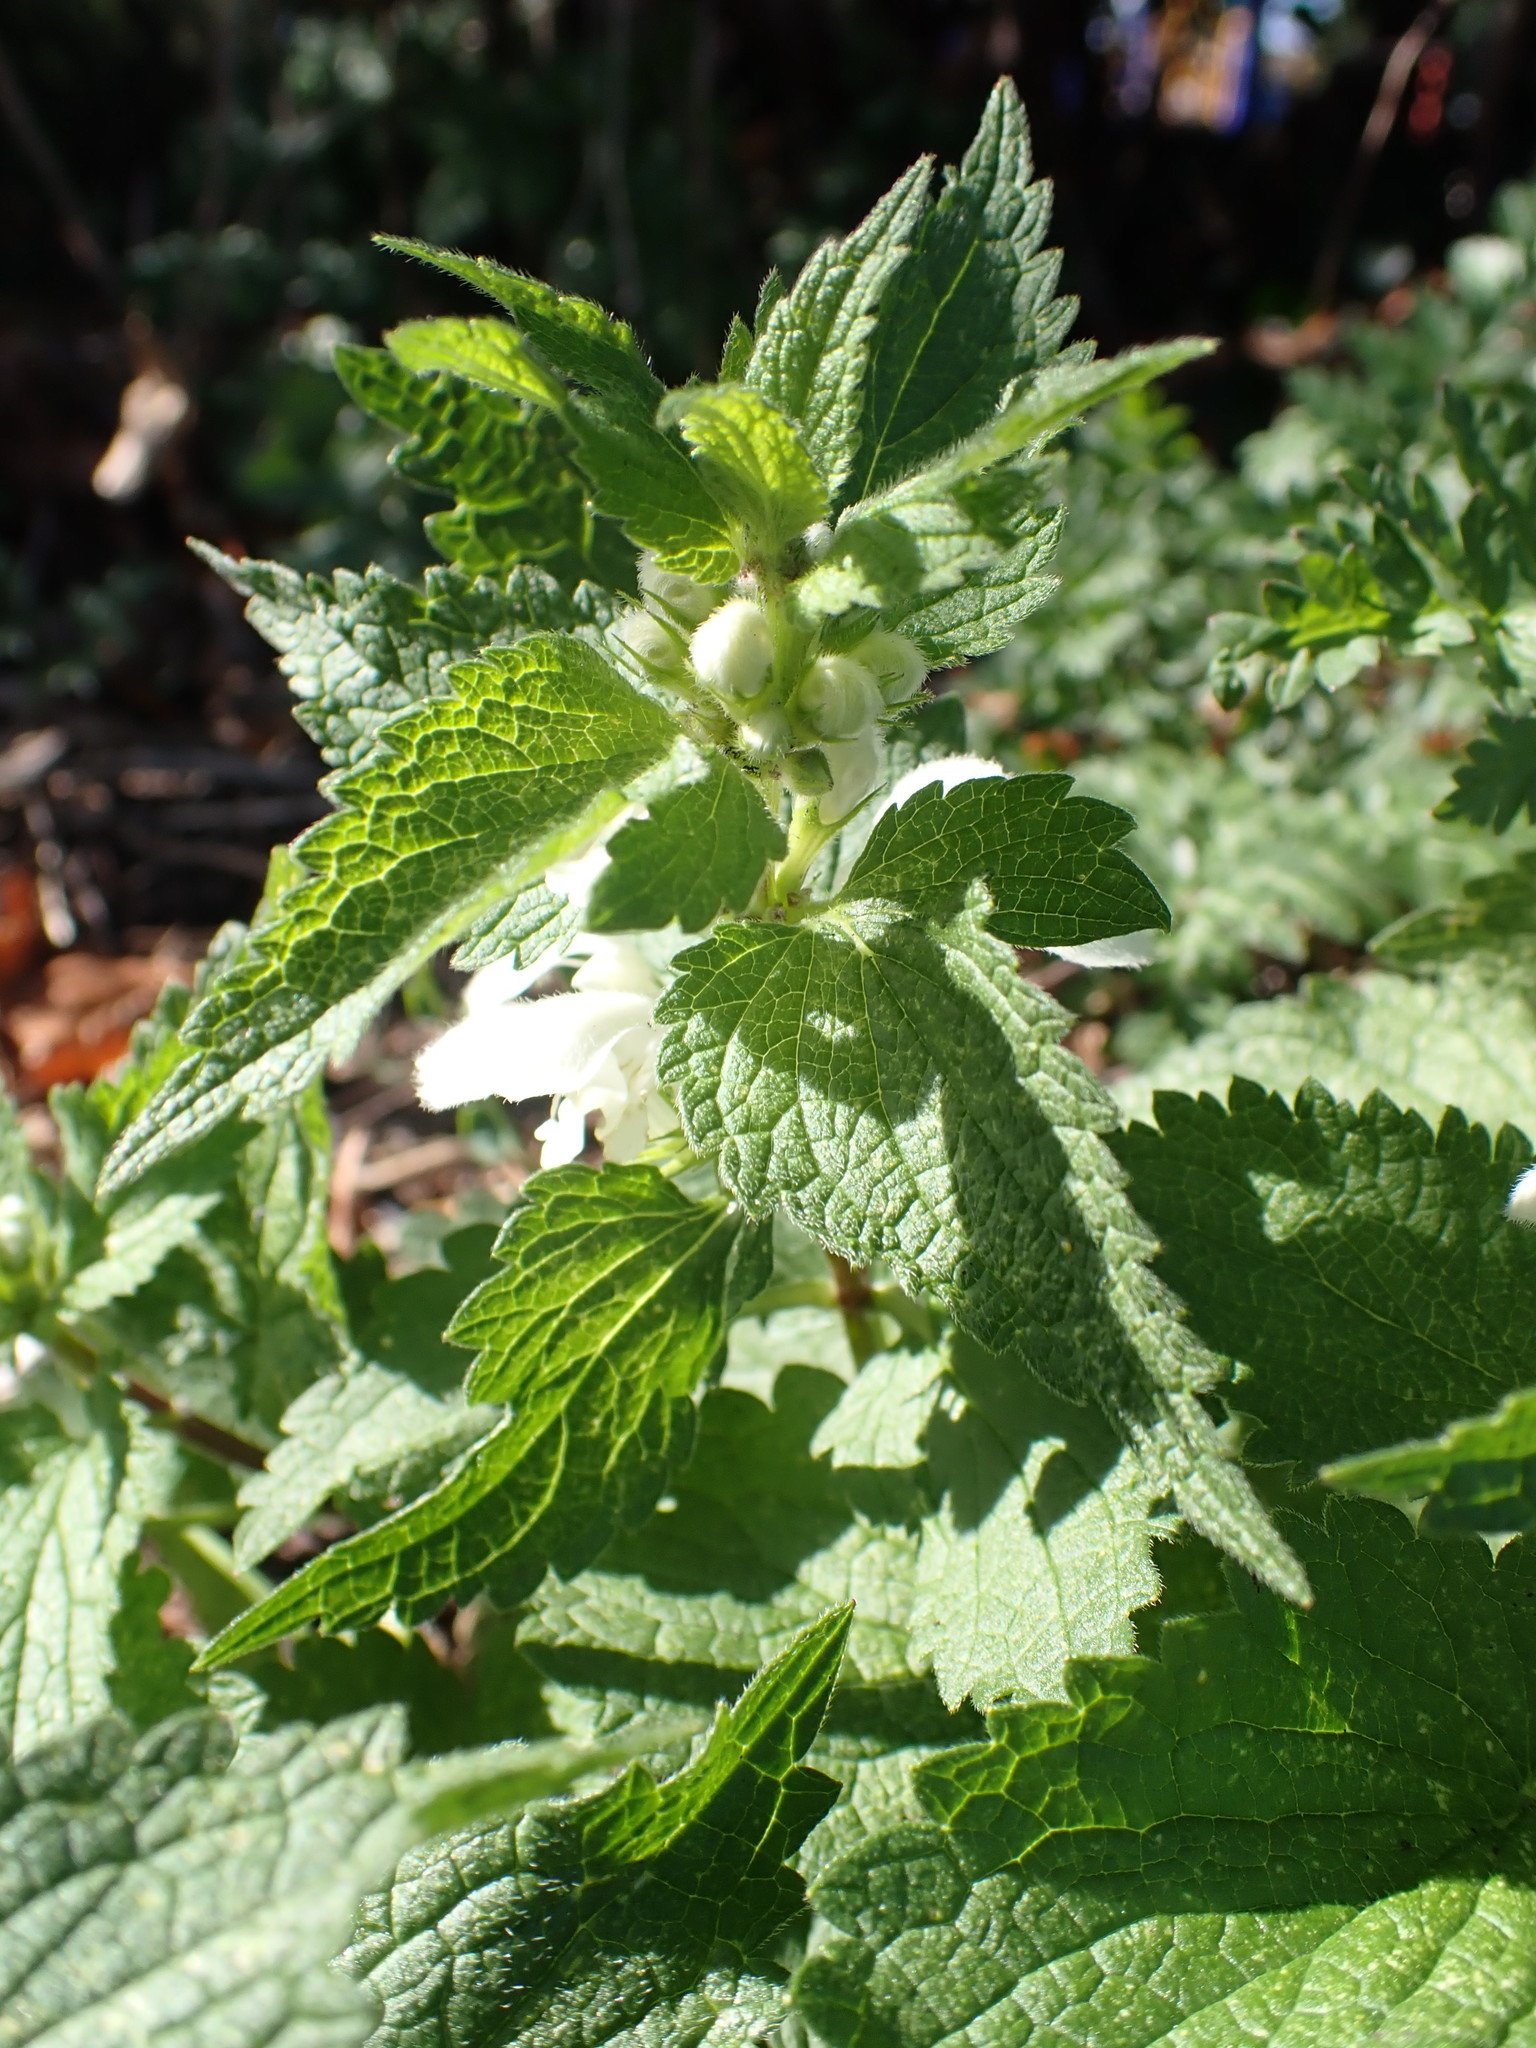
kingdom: Plantae
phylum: Tracheophyta
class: Magnoliopsida
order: Lamiales
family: Lamiaceae
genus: Lamium
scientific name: Lamium album
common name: White dead-nettle
